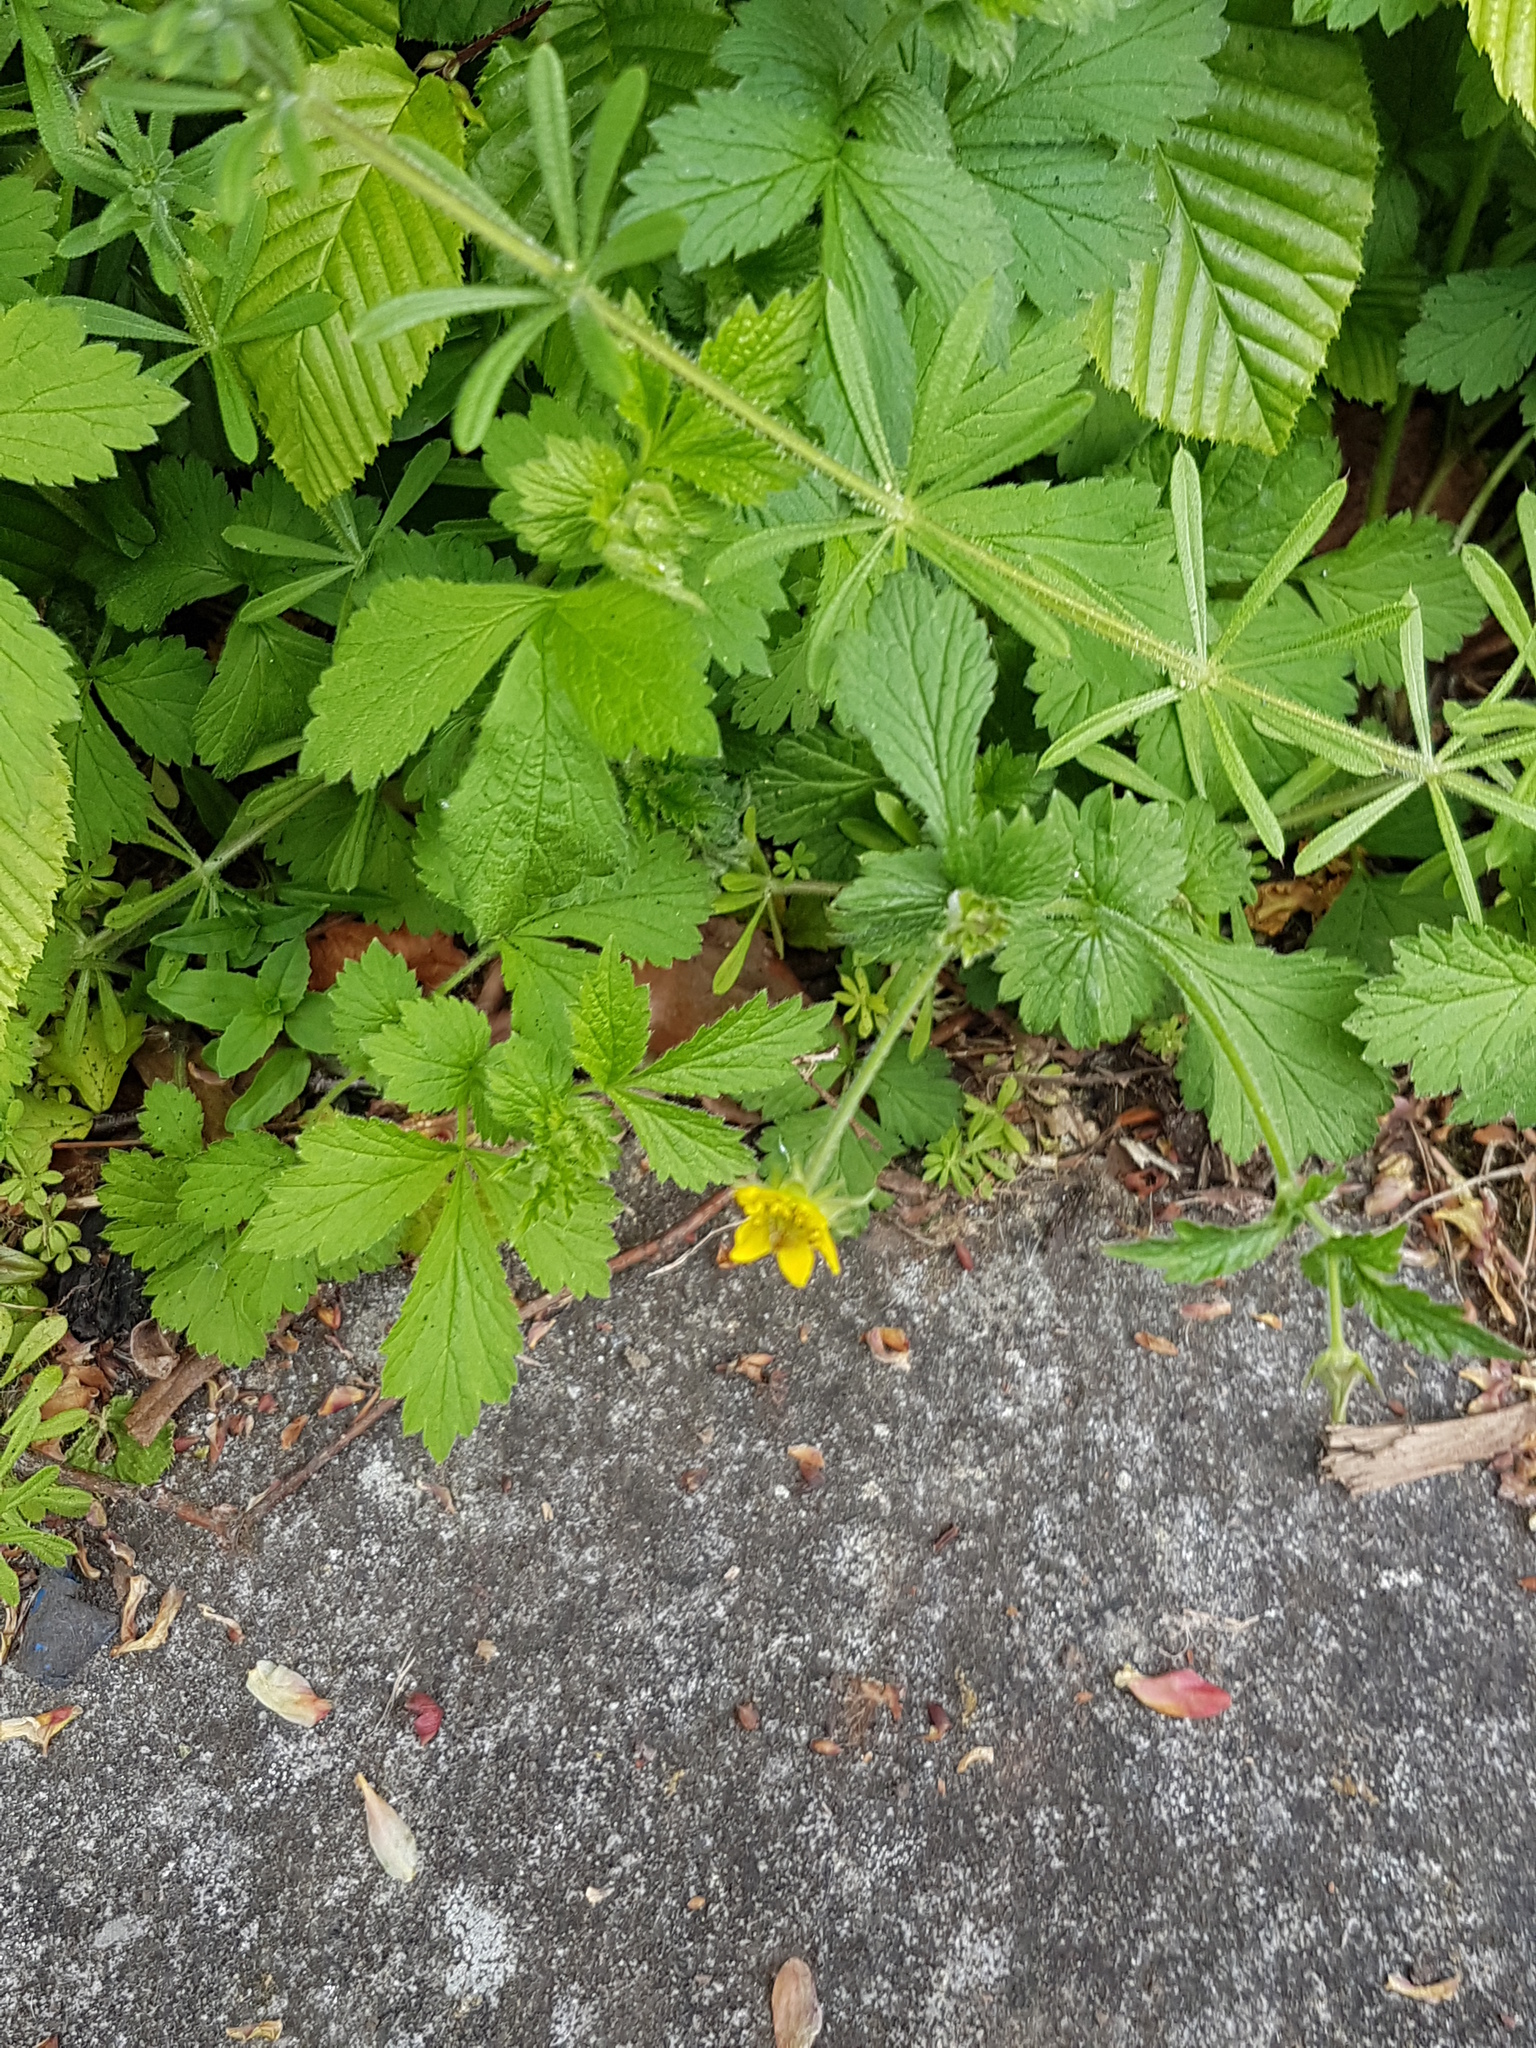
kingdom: Plantae
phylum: Tracheophyta
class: Magnoliopsida
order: Rosales
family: Rosaceae
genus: Geum
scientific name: Geum urbanum
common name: Wood avens
